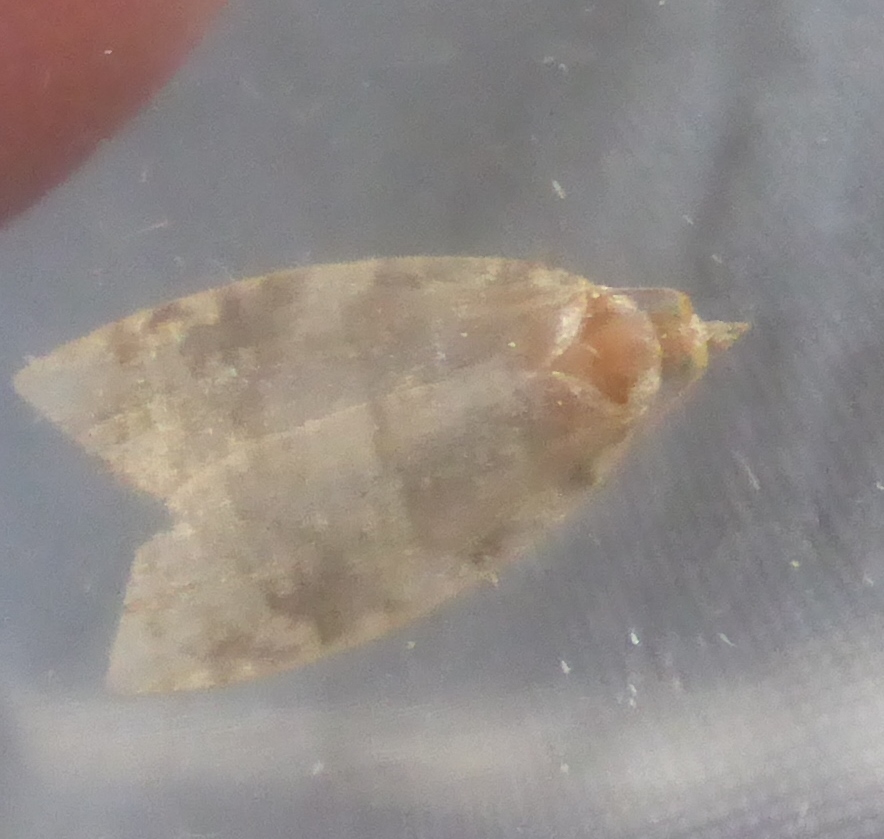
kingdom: Animalia
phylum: Arthropoda
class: Insecta
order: Lepidoptera
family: Tortricidae
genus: Aleimma
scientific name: Aleimma loeflingiana
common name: Yellow oak button
